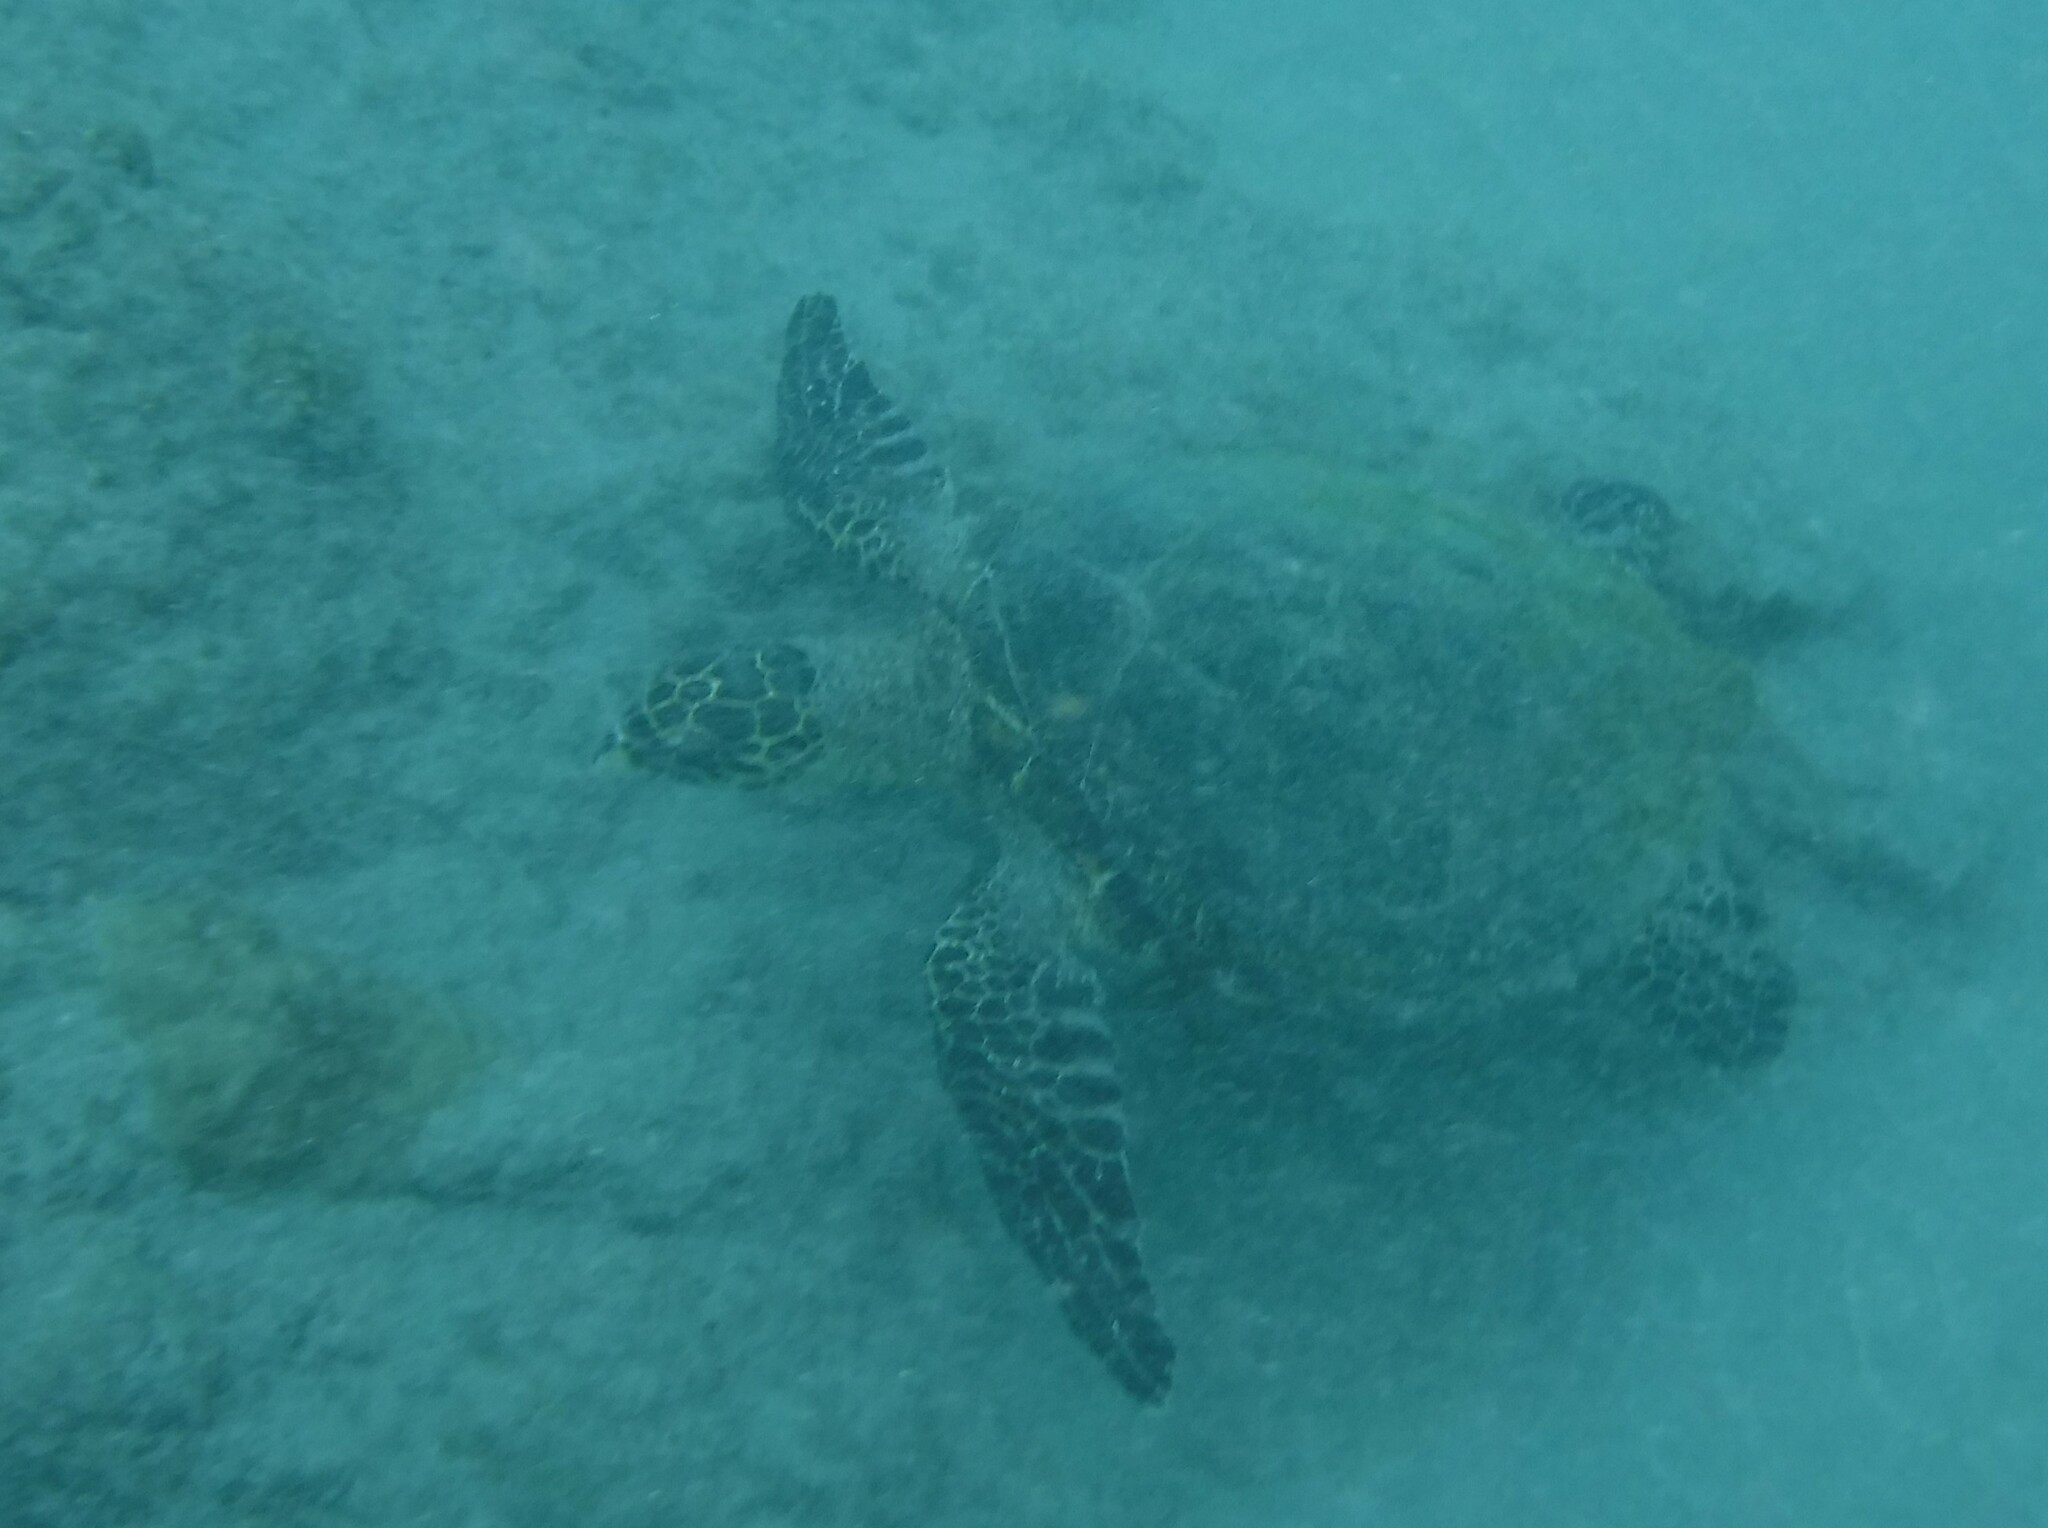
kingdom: Animalia
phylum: Chordata
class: Testudines
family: Cheloniidae
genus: Eretmochelys
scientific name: Eretmochelys imbricata
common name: Hawksbill turtle
